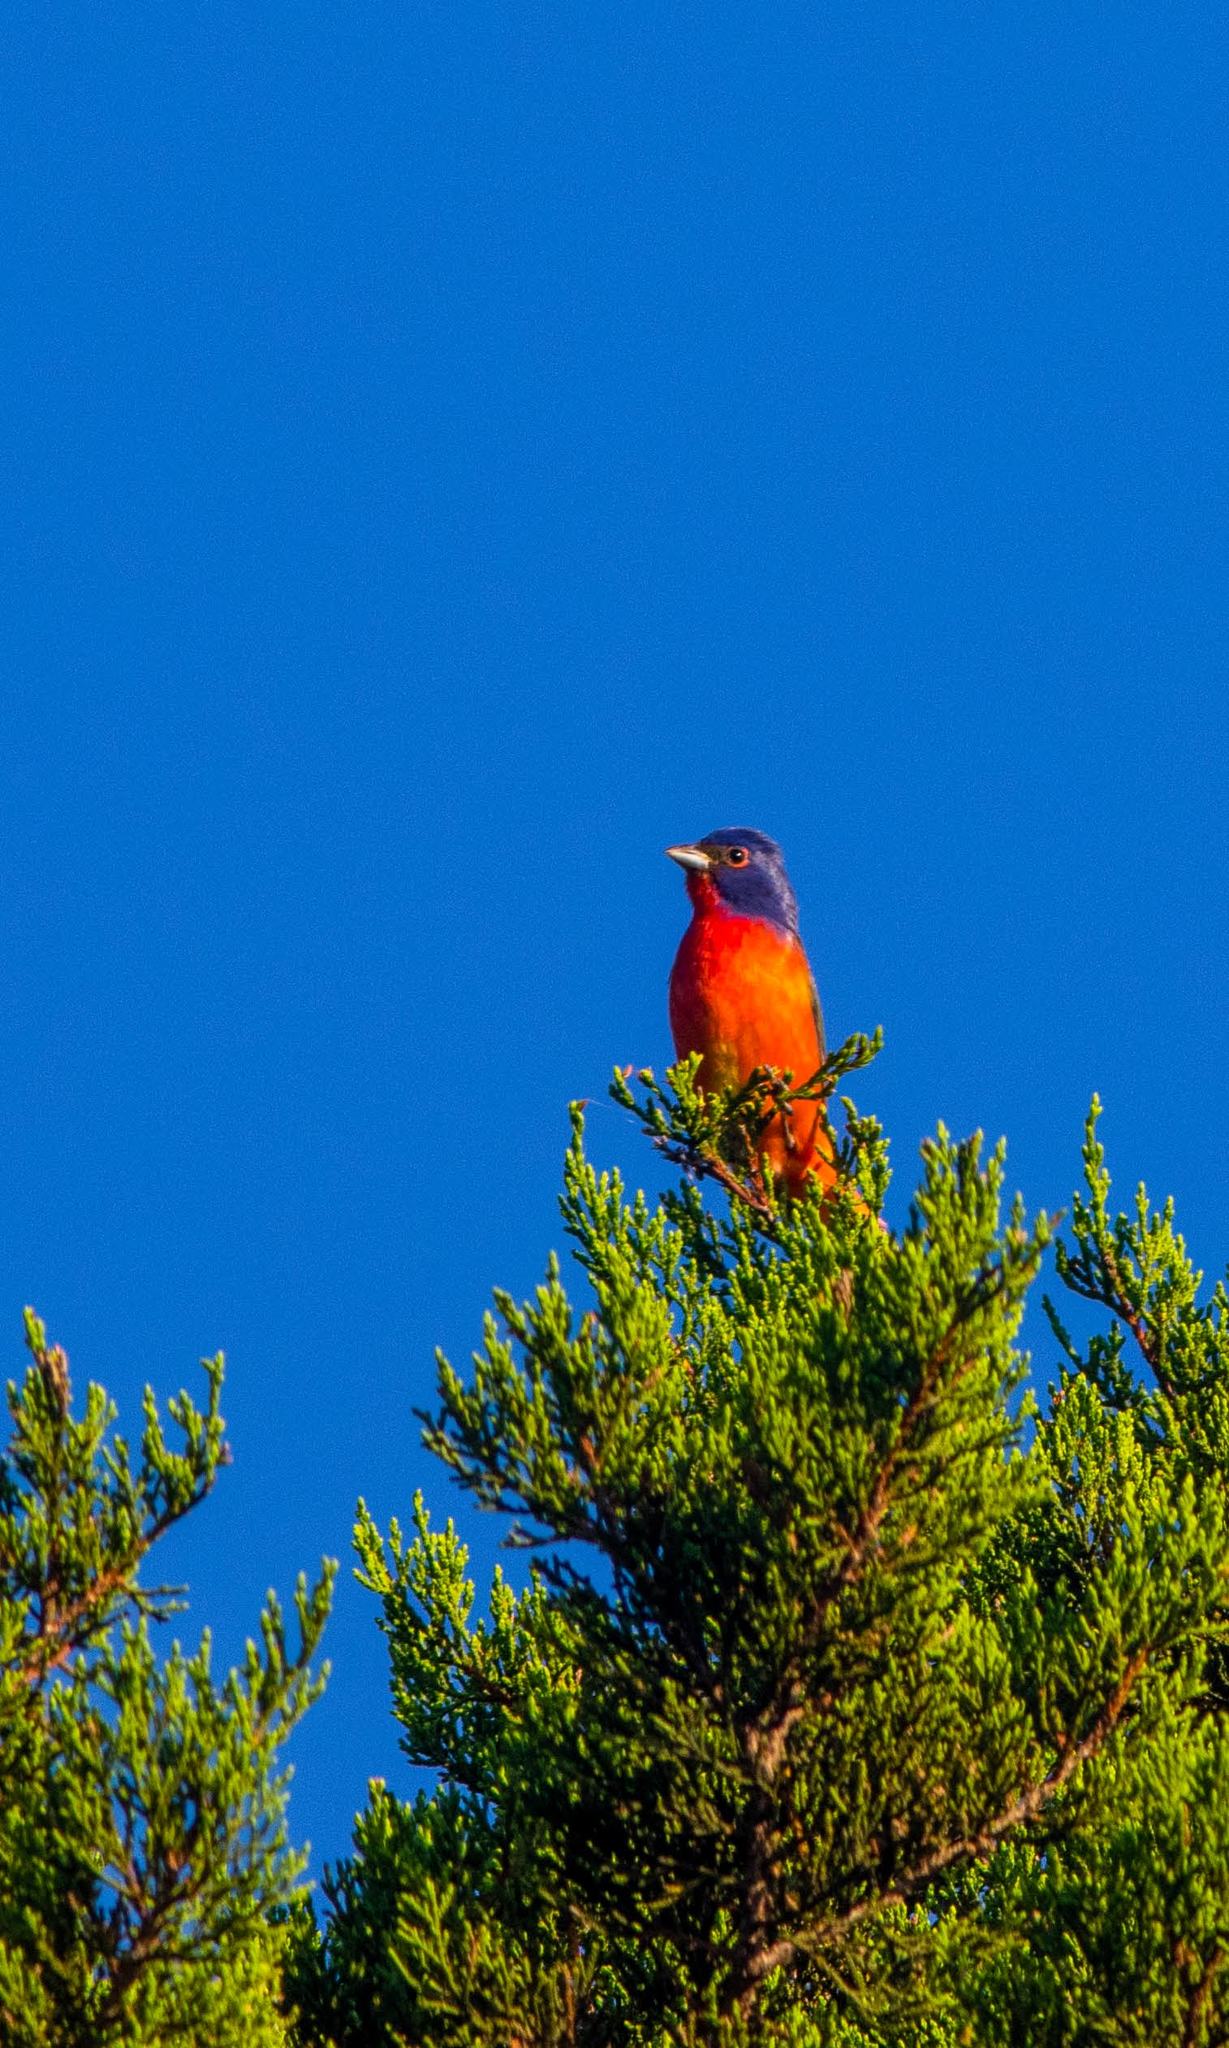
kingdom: Animalia
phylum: Chordata
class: Aves
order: Passeriformes
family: Cardinalidae
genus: Passerina
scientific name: Passerina ciris
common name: Painted bunting
